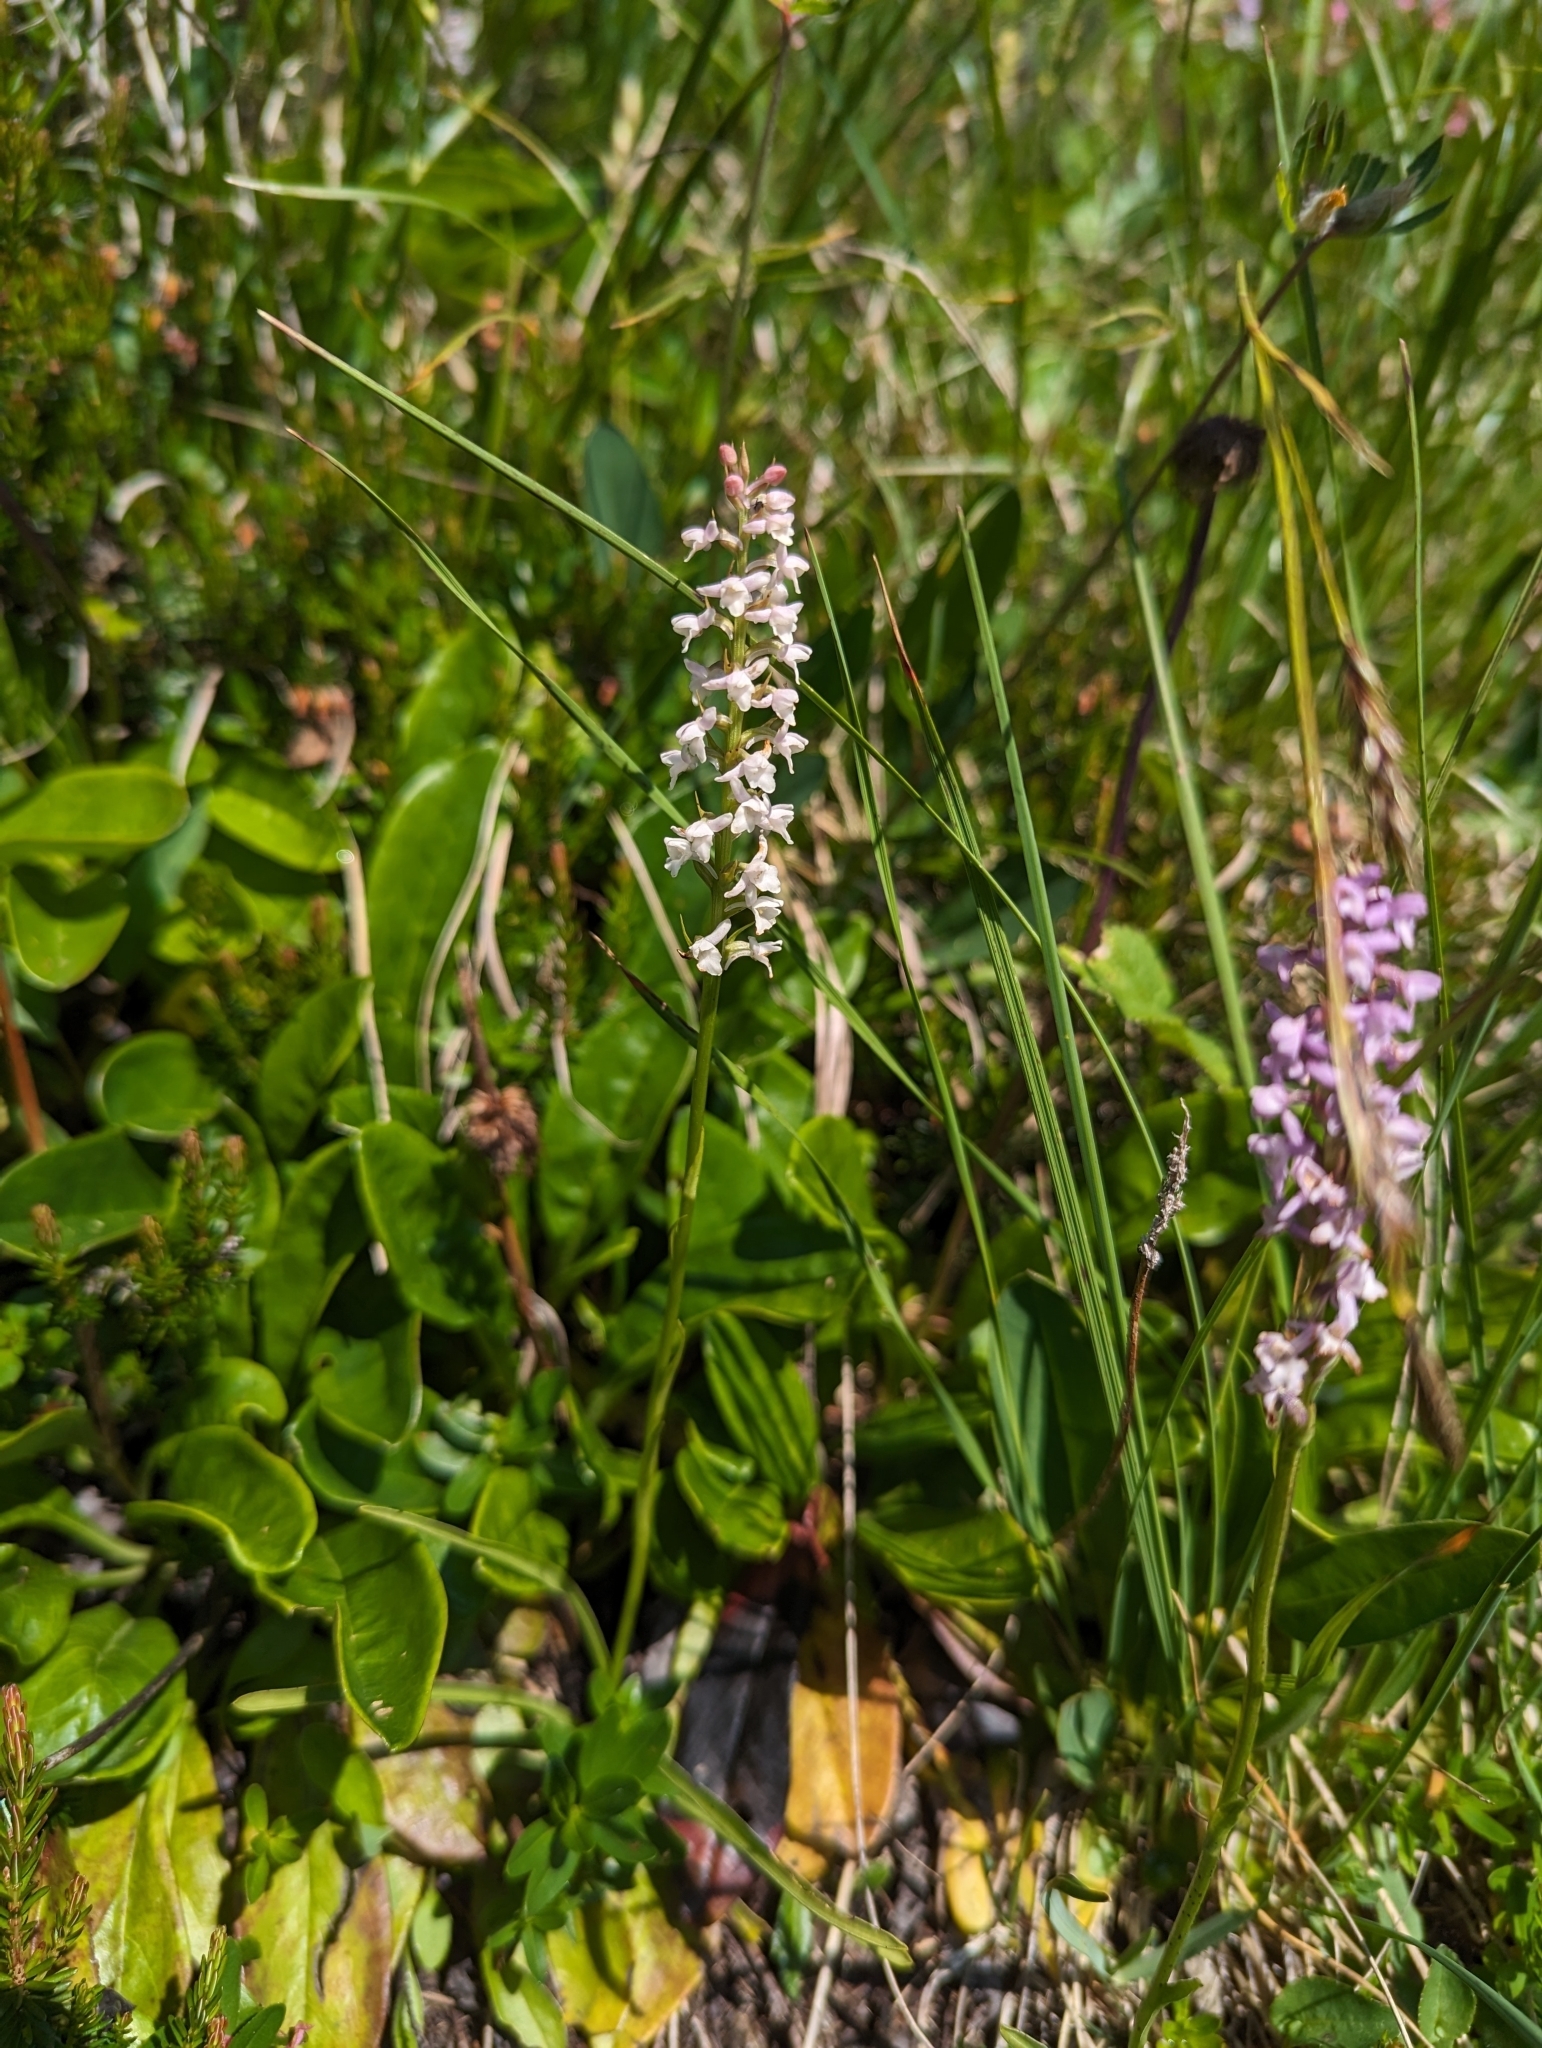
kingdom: Plantae
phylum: Tracheophyta
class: Liliopsida
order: Asparagales
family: Orchidaceae
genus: Gymnadenia
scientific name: Gymnadenia odoratissima
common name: Scented gymnadenia
